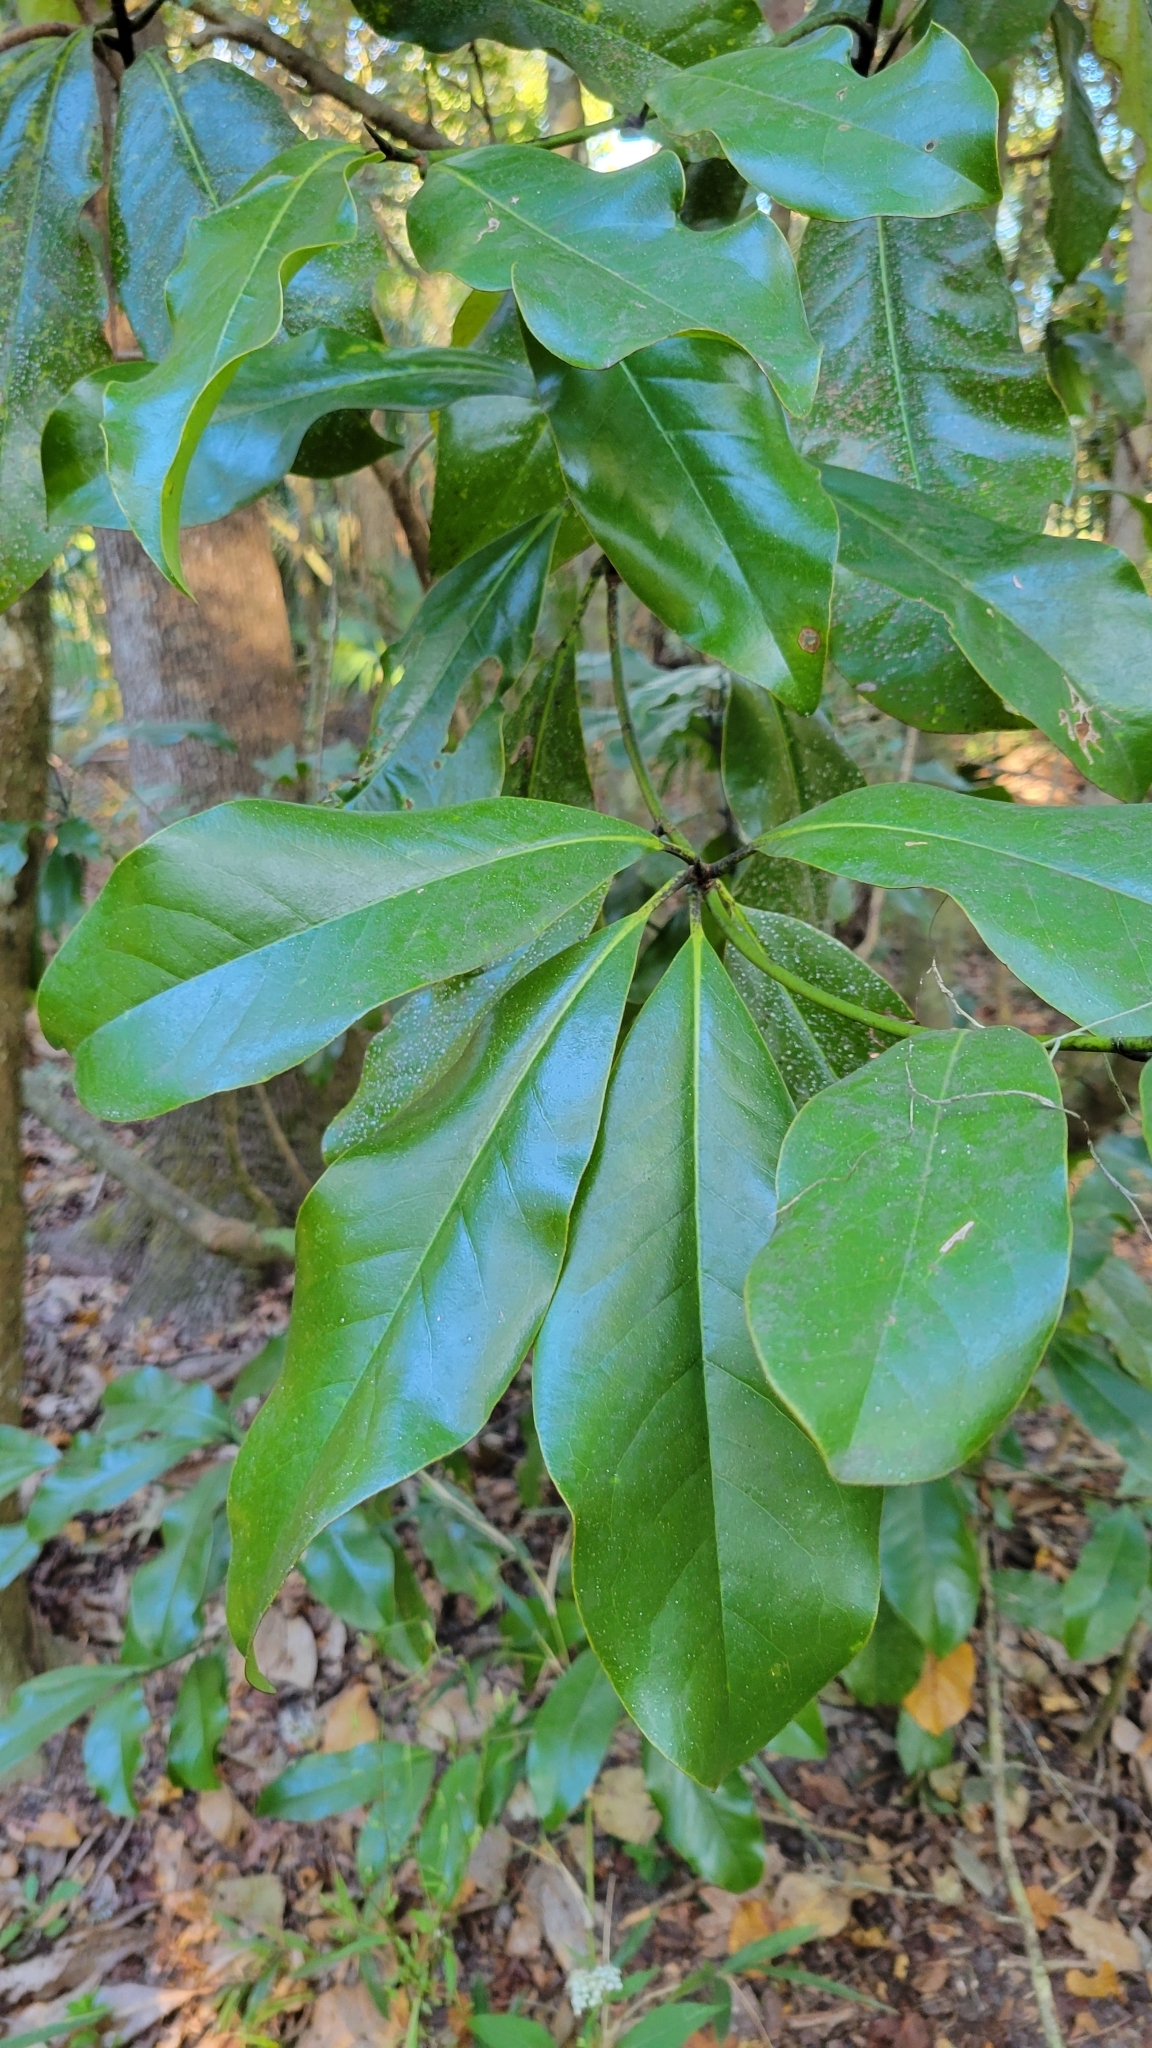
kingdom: Plantae
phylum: Tracheophyta
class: Magnoliopsida
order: Magnoliales
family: Magnoliaceae
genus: Magnolia
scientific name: Magnolia grandiflora
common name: Southern magnolia
